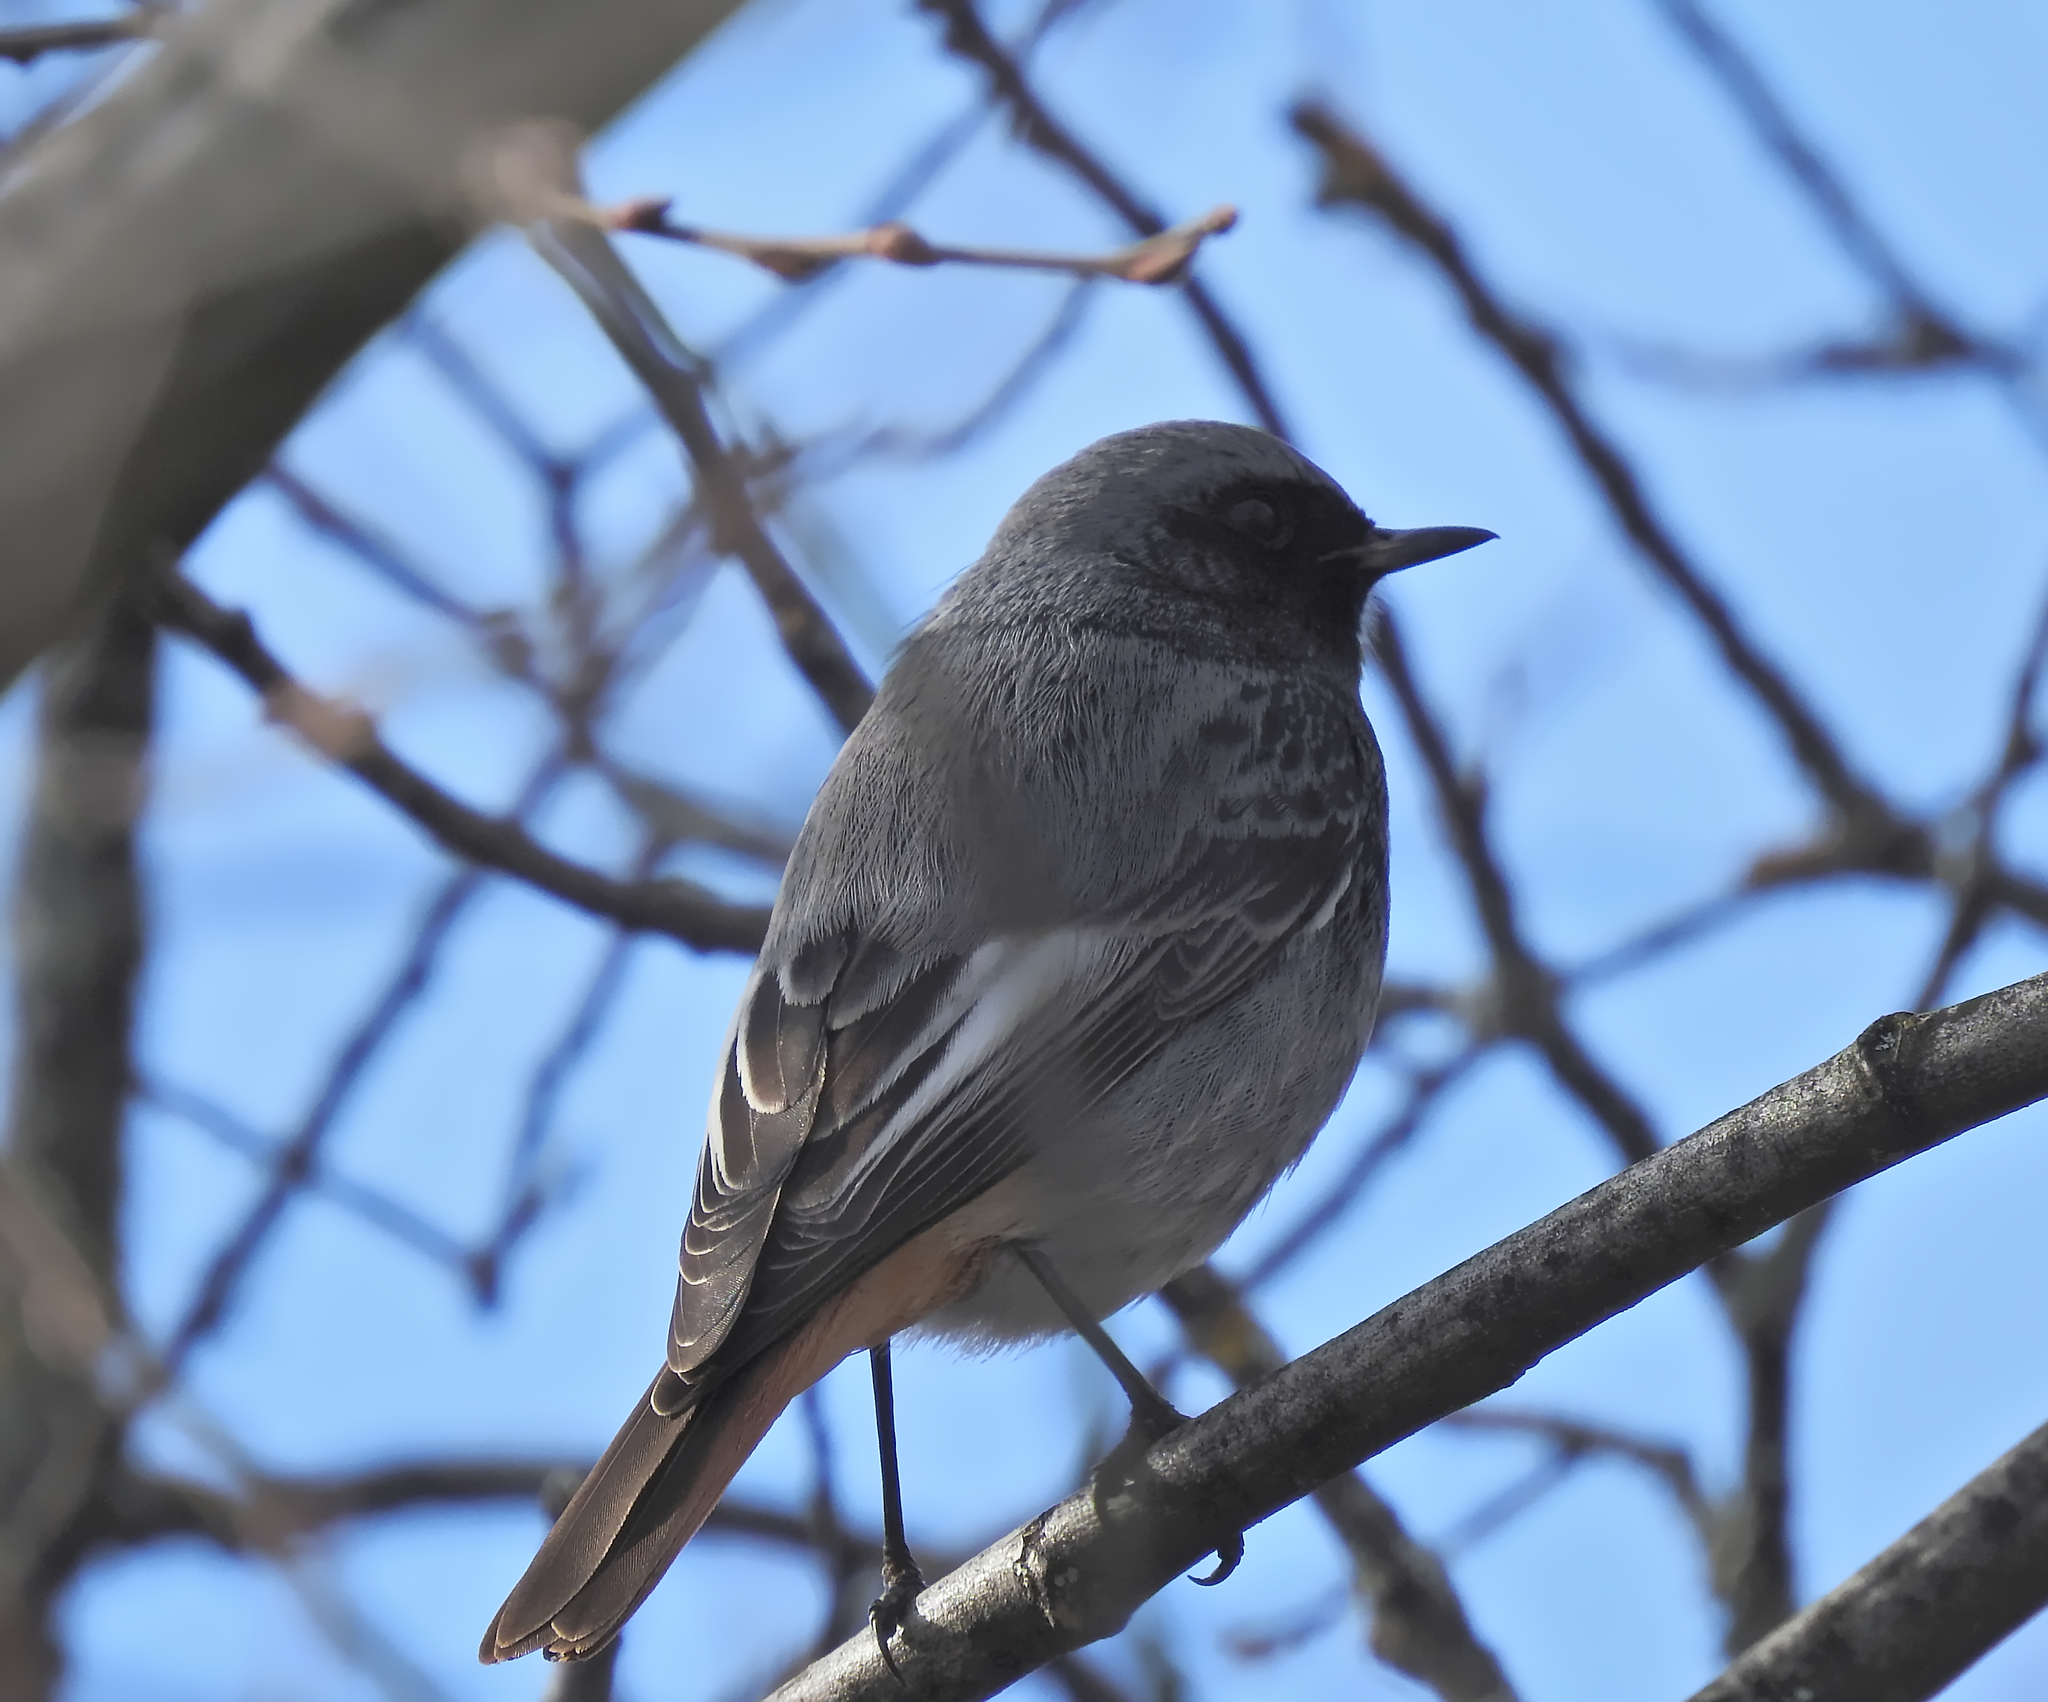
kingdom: Animalia
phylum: Chordata
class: Aves
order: Passeriformes
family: Muscicapidae
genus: Phoenicurus
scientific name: Phoenicurus ochruros
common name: Black redstart
